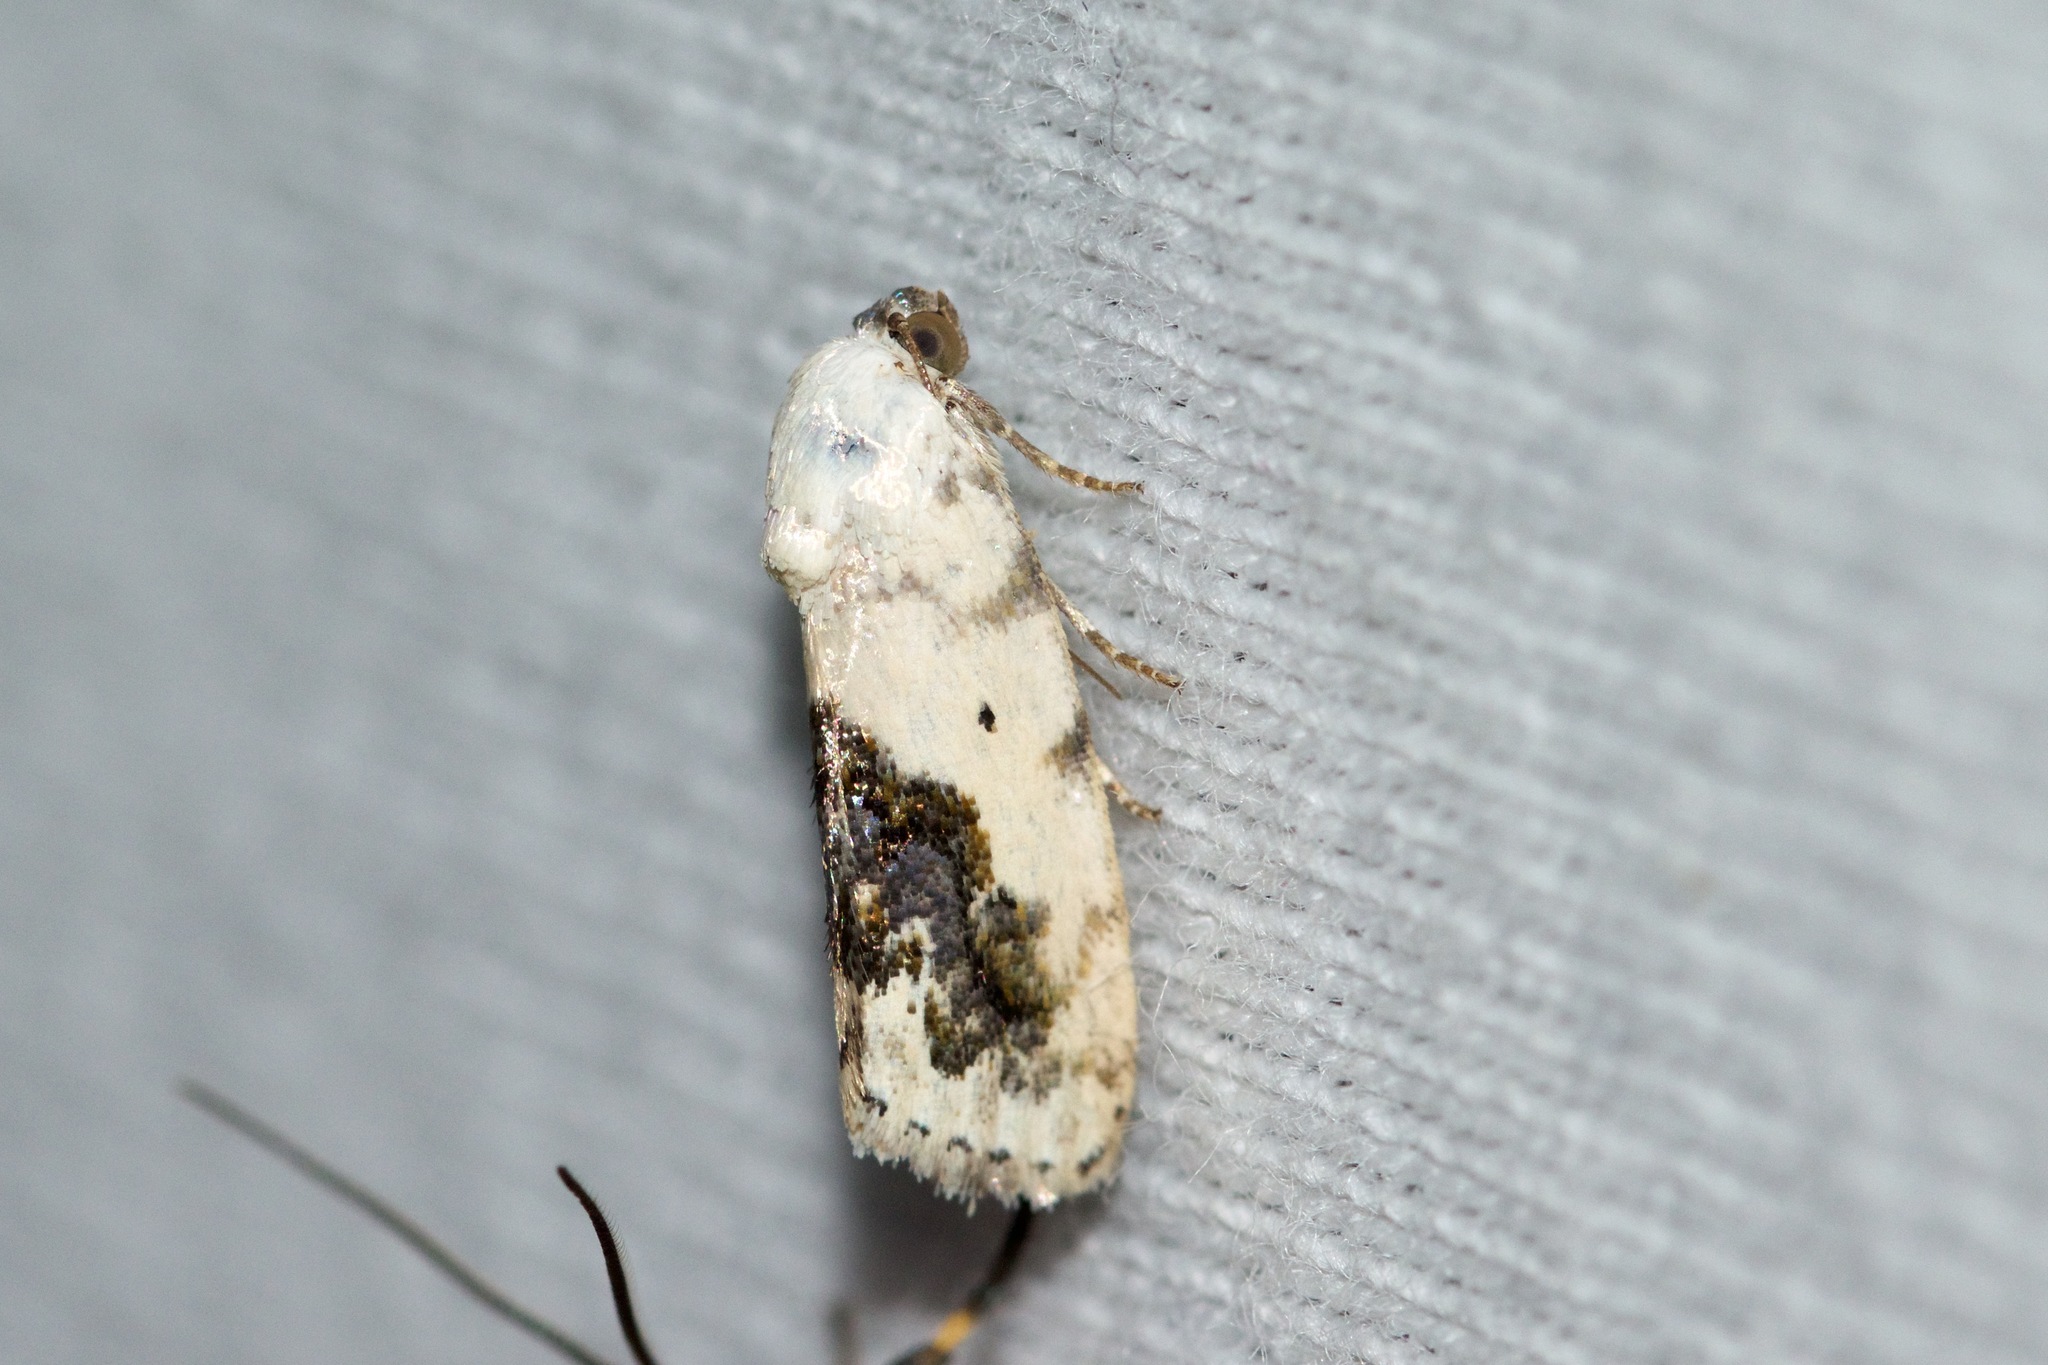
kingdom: Animalia
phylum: Arthropoda
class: Insecta
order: Lepidoptera
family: Noctuidae
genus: Acontia
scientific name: Acontia erastrioides
